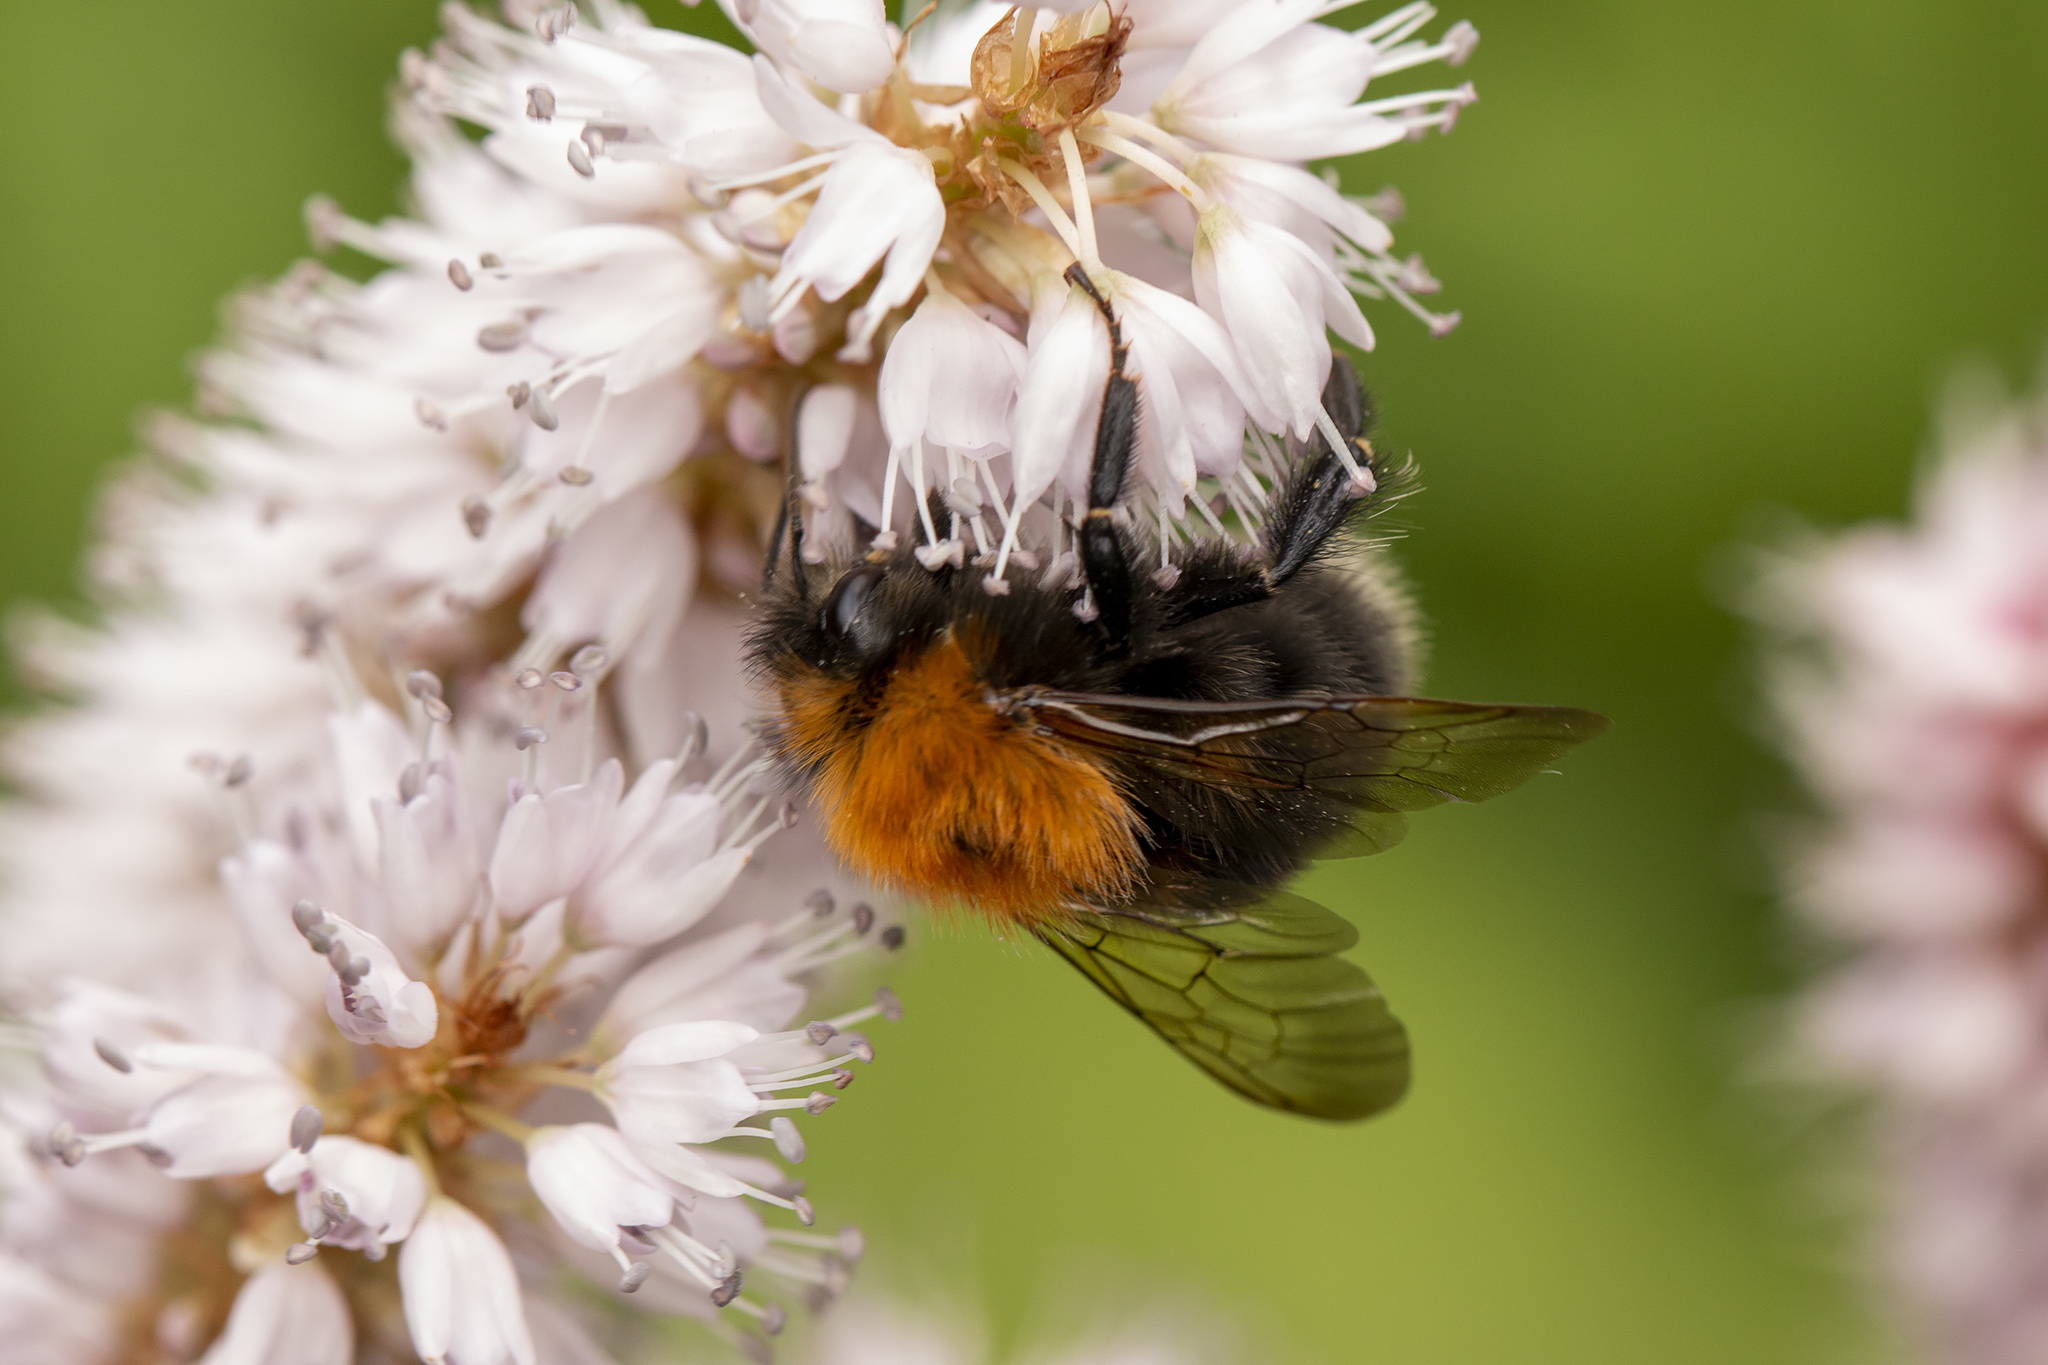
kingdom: Animalia
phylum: Arthropoda
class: Insecta
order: Hymenoptera
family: Apidae
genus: Bombus
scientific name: Bombus hypnorum
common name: New garden bumblebee
